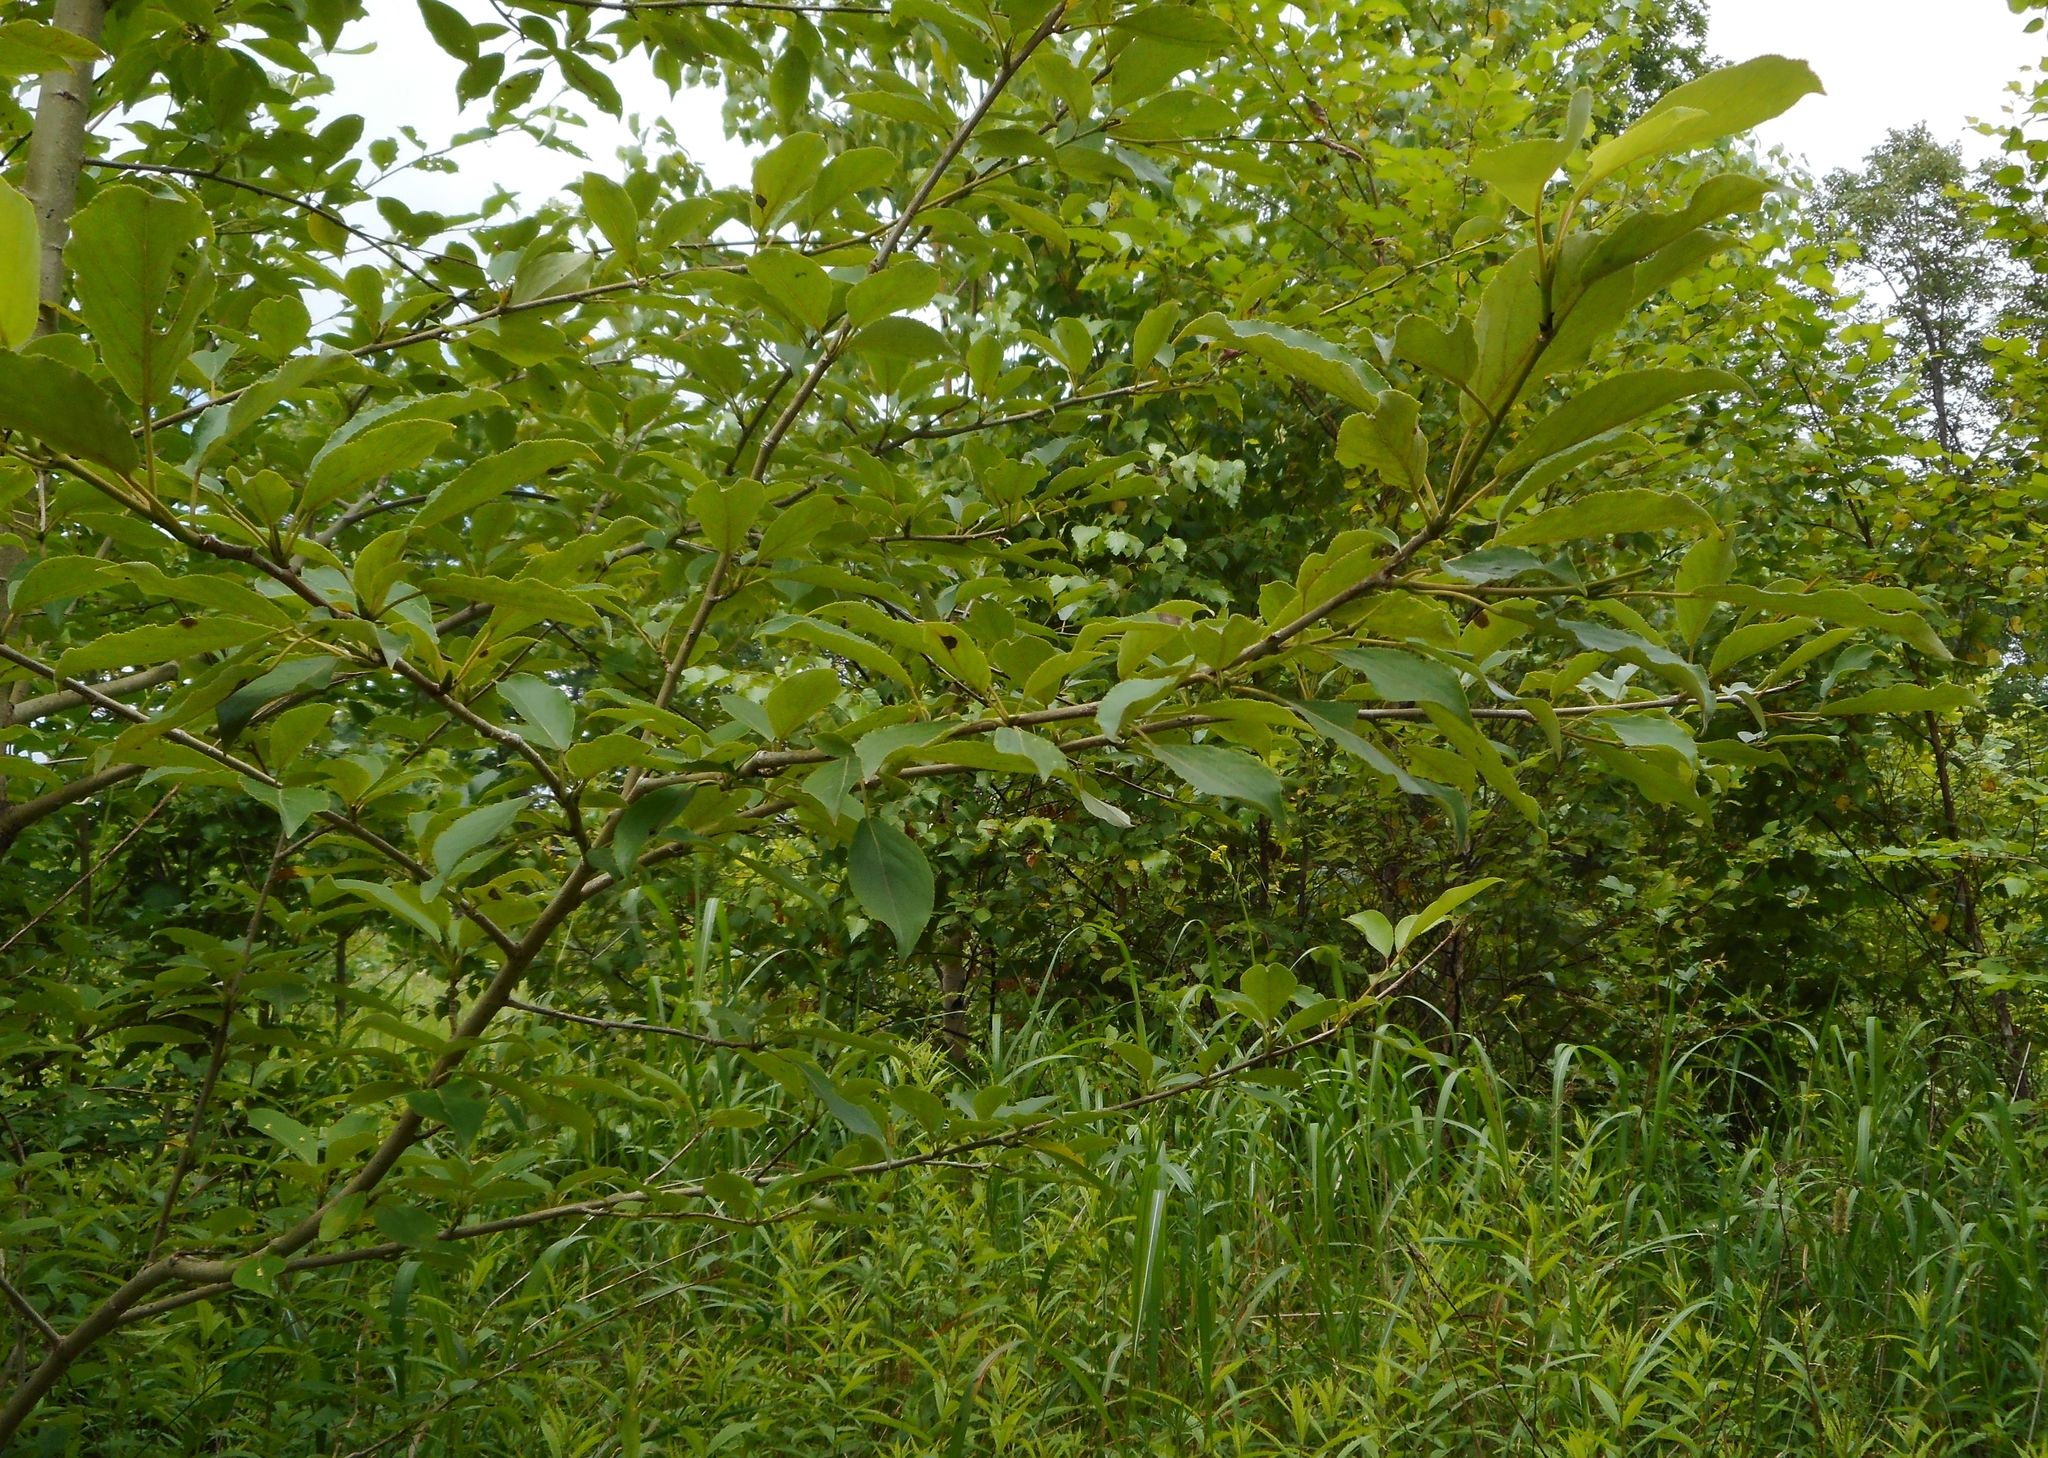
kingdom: Plantae
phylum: Tracheophyta
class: Magnoliopsida
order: Malpighiales
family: Salicaceae
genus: Populus
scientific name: Populus suaveolens
